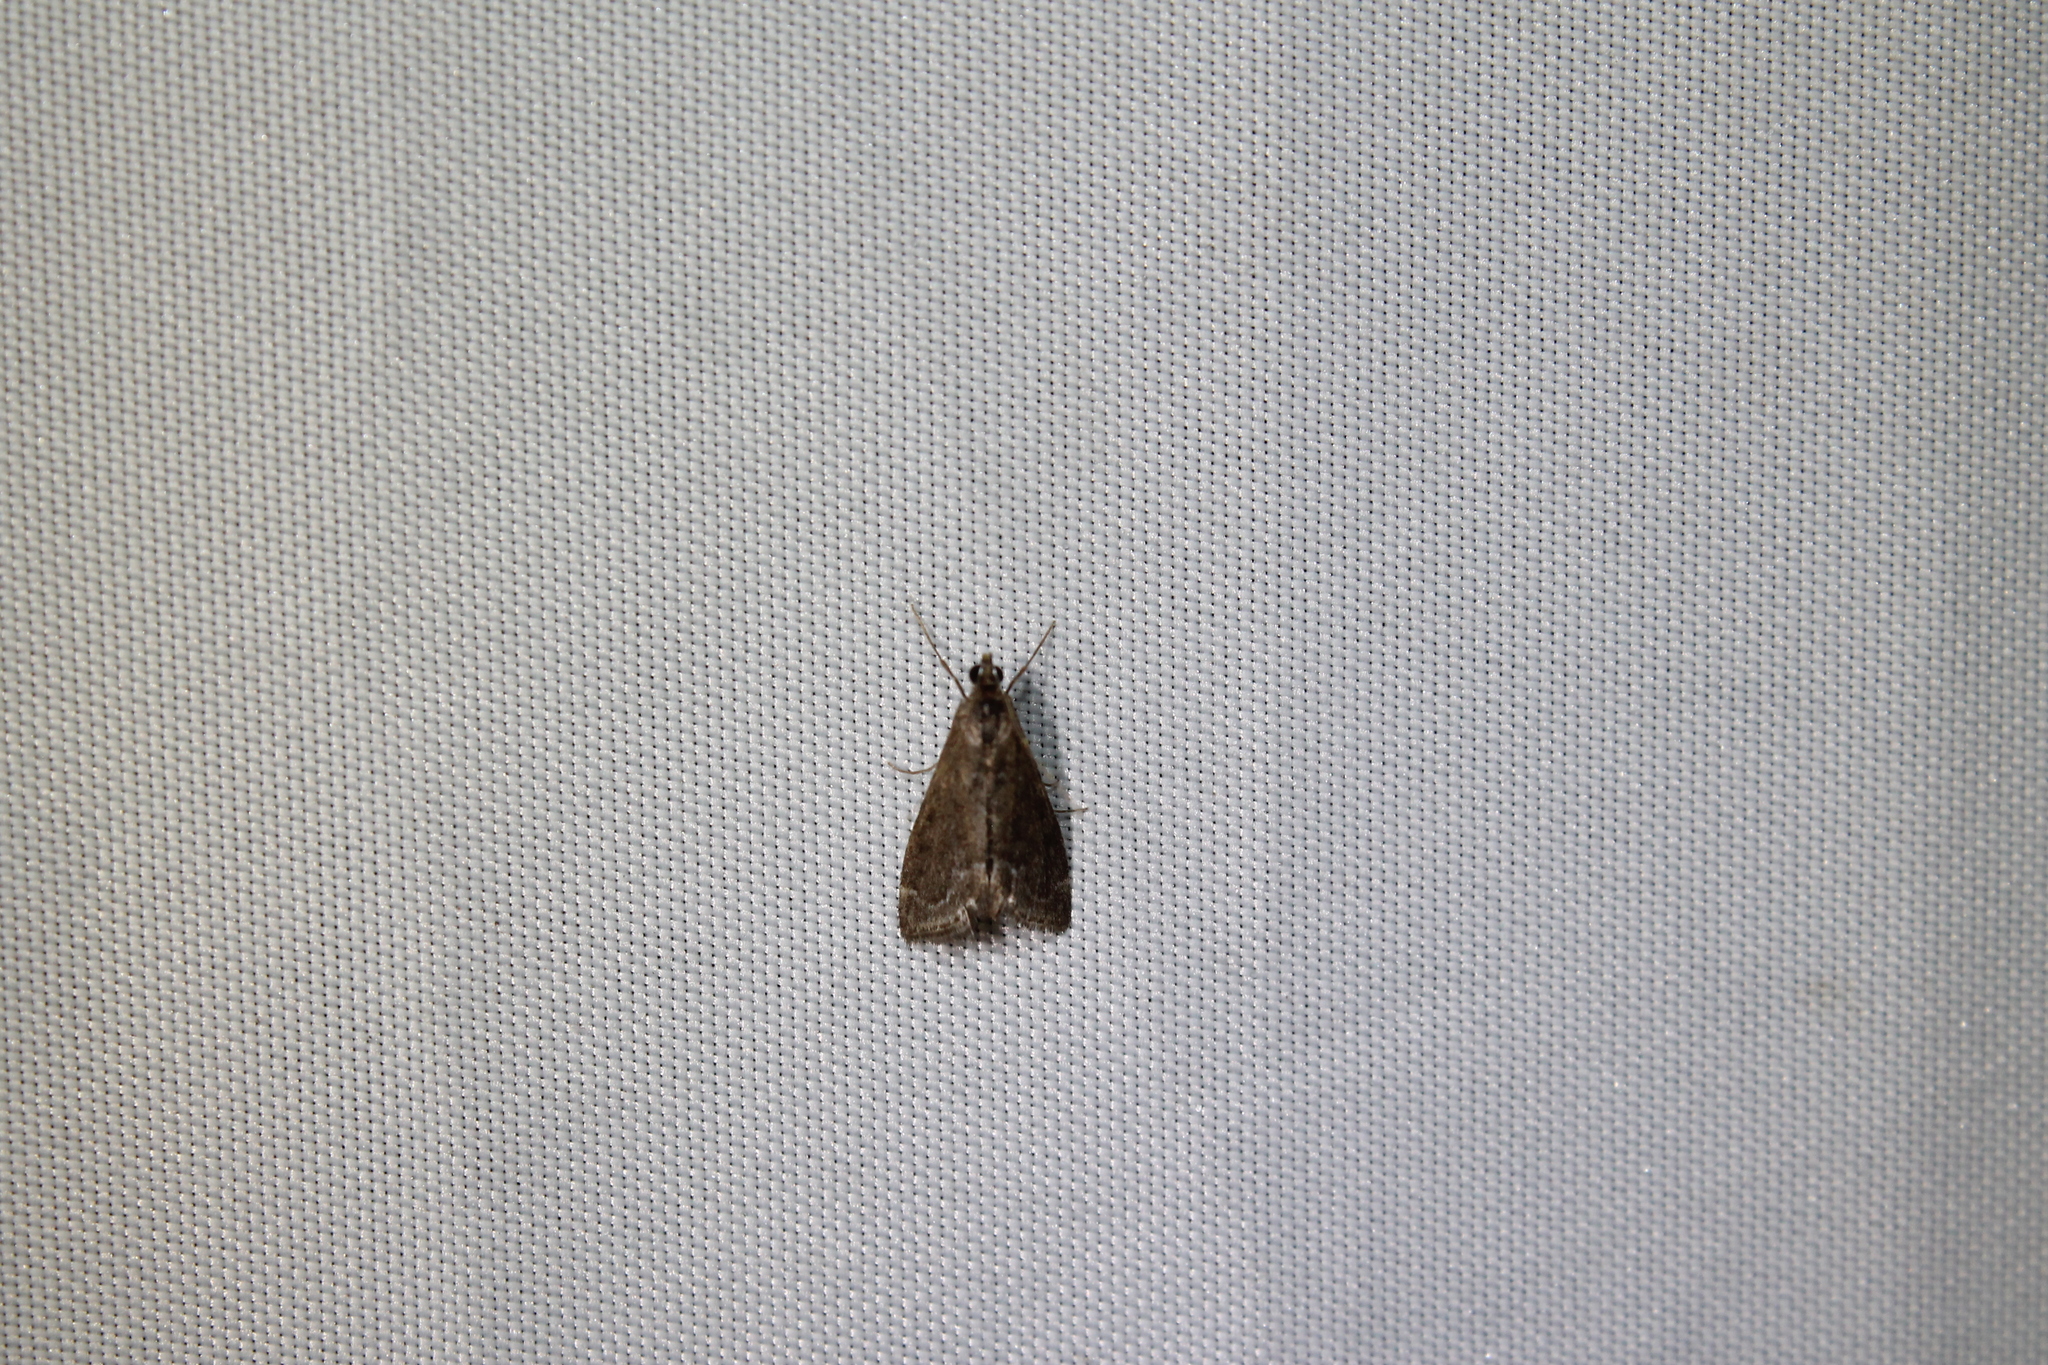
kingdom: Animalia
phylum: Arthropoda
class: Insecta
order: Lepidoptera
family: Crambidae
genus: Pyrausta
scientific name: Pyrausta napaealis
